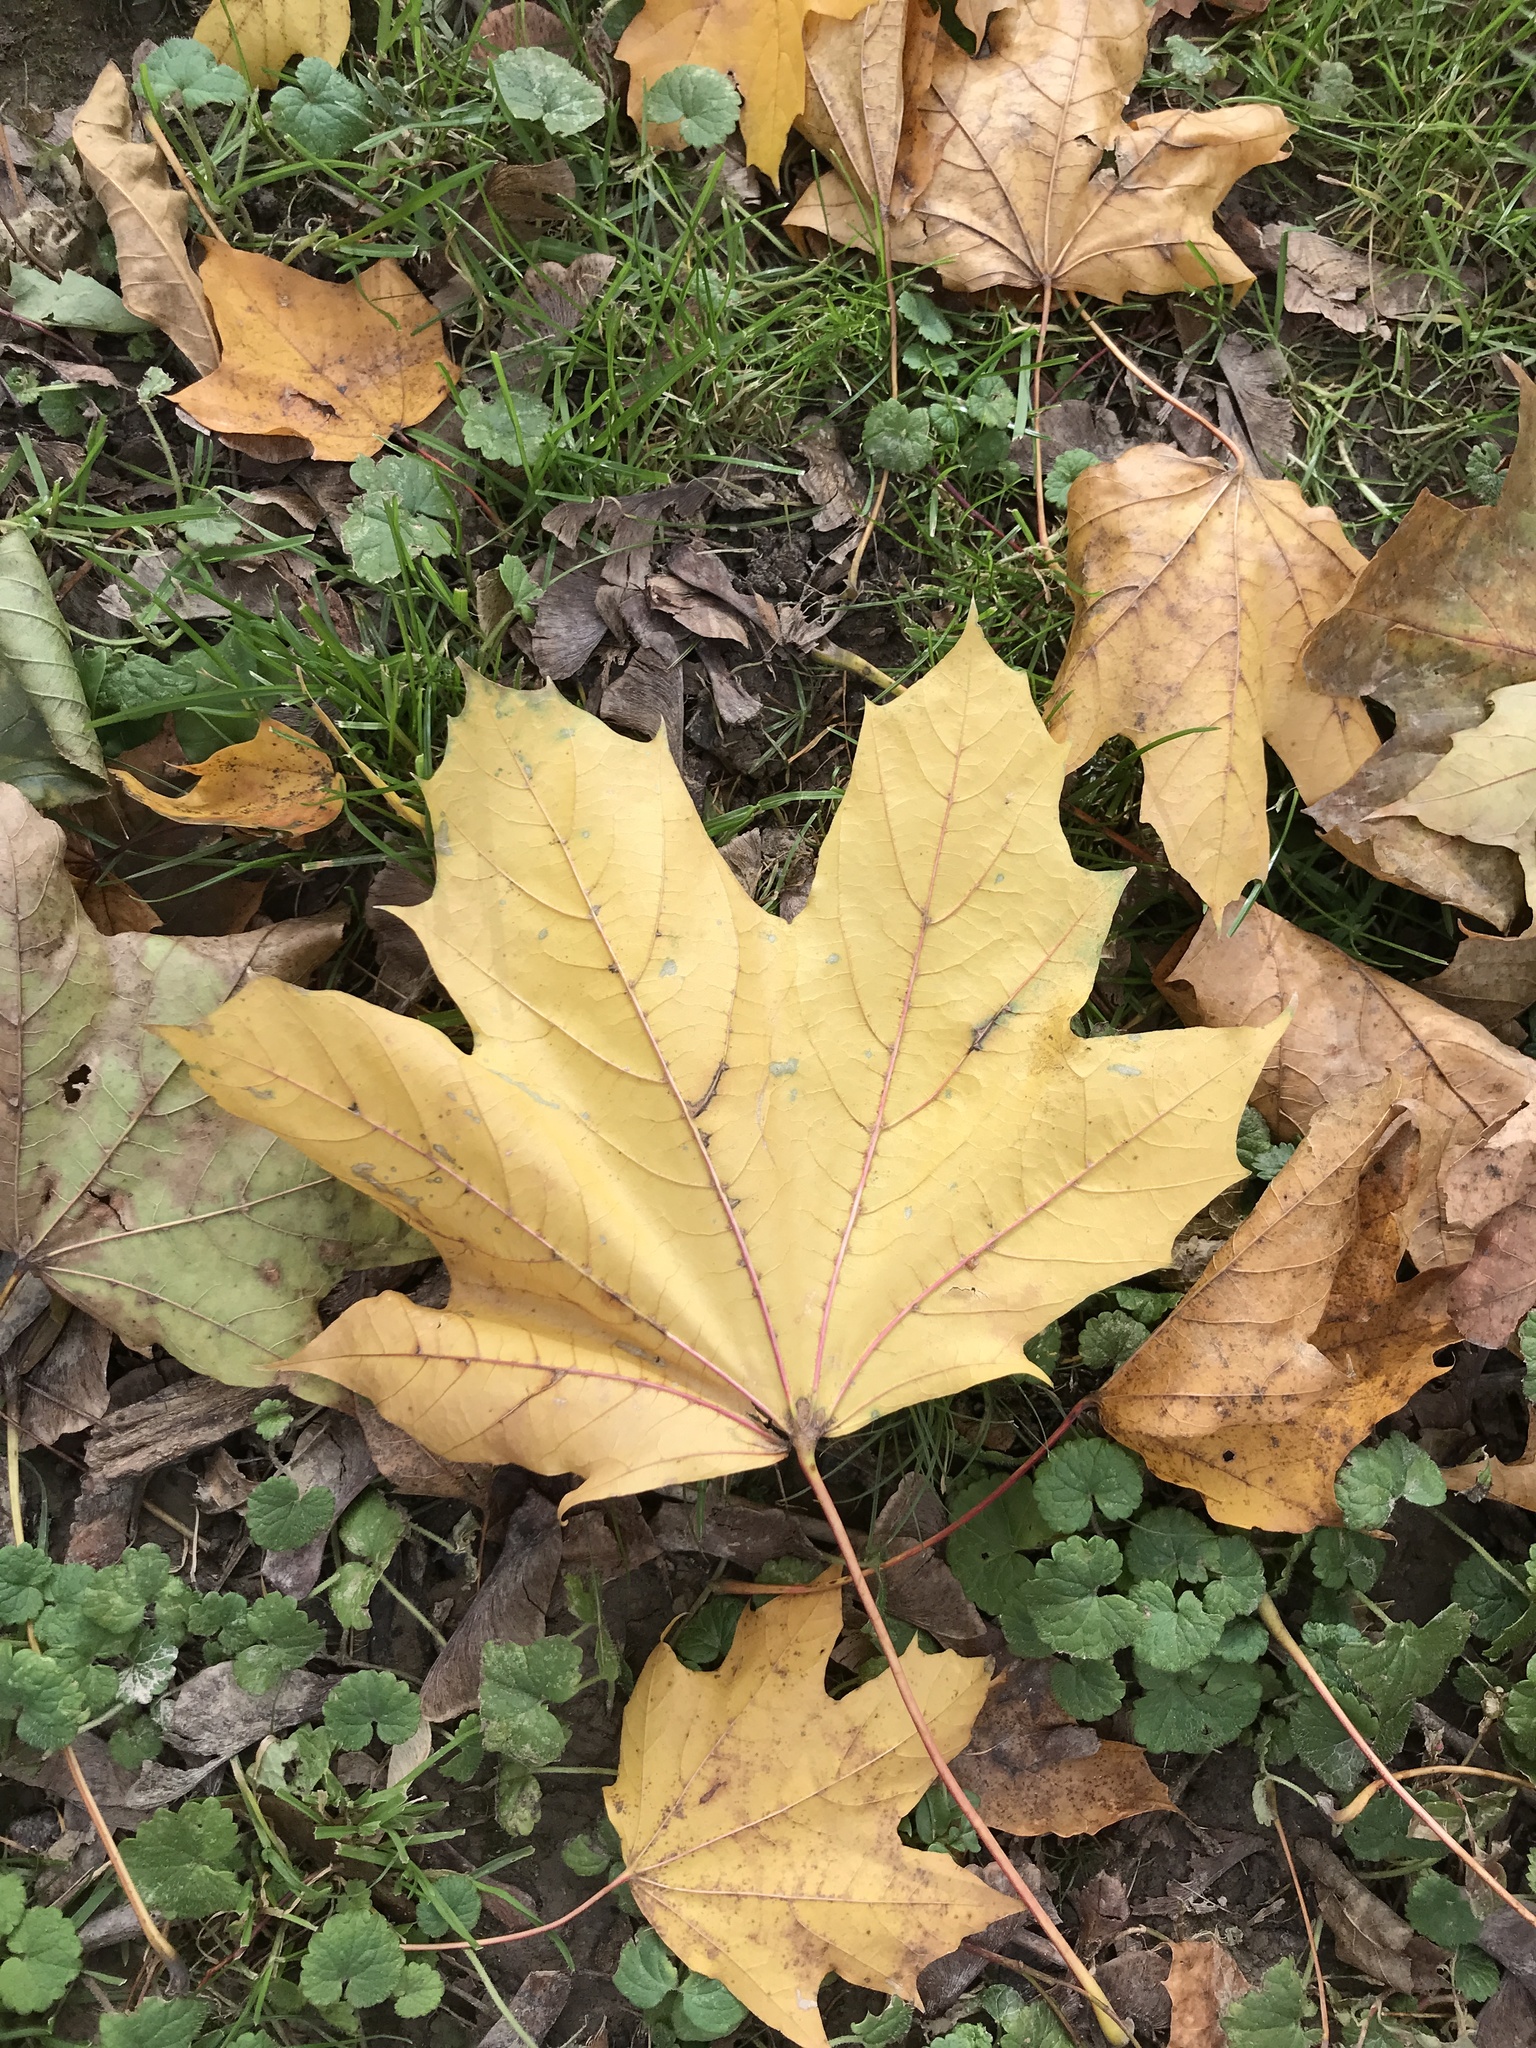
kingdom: Plantae
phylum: Tracheophyta
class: Magnoliopsida
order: Sapindales
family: Sapindaceae
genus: Acer
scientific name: Acer platanoides
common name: Norway maple
